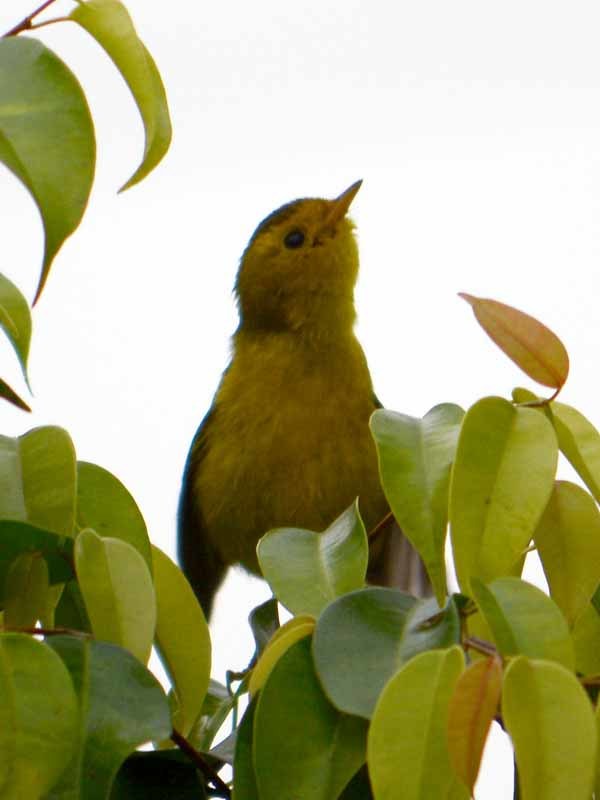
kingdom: Animalia
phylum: Chordata
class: Aves
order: Passeriformes
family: Parulidae
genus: Cardellina
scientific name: Cardellina pusilla
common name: Wilson's warbler
